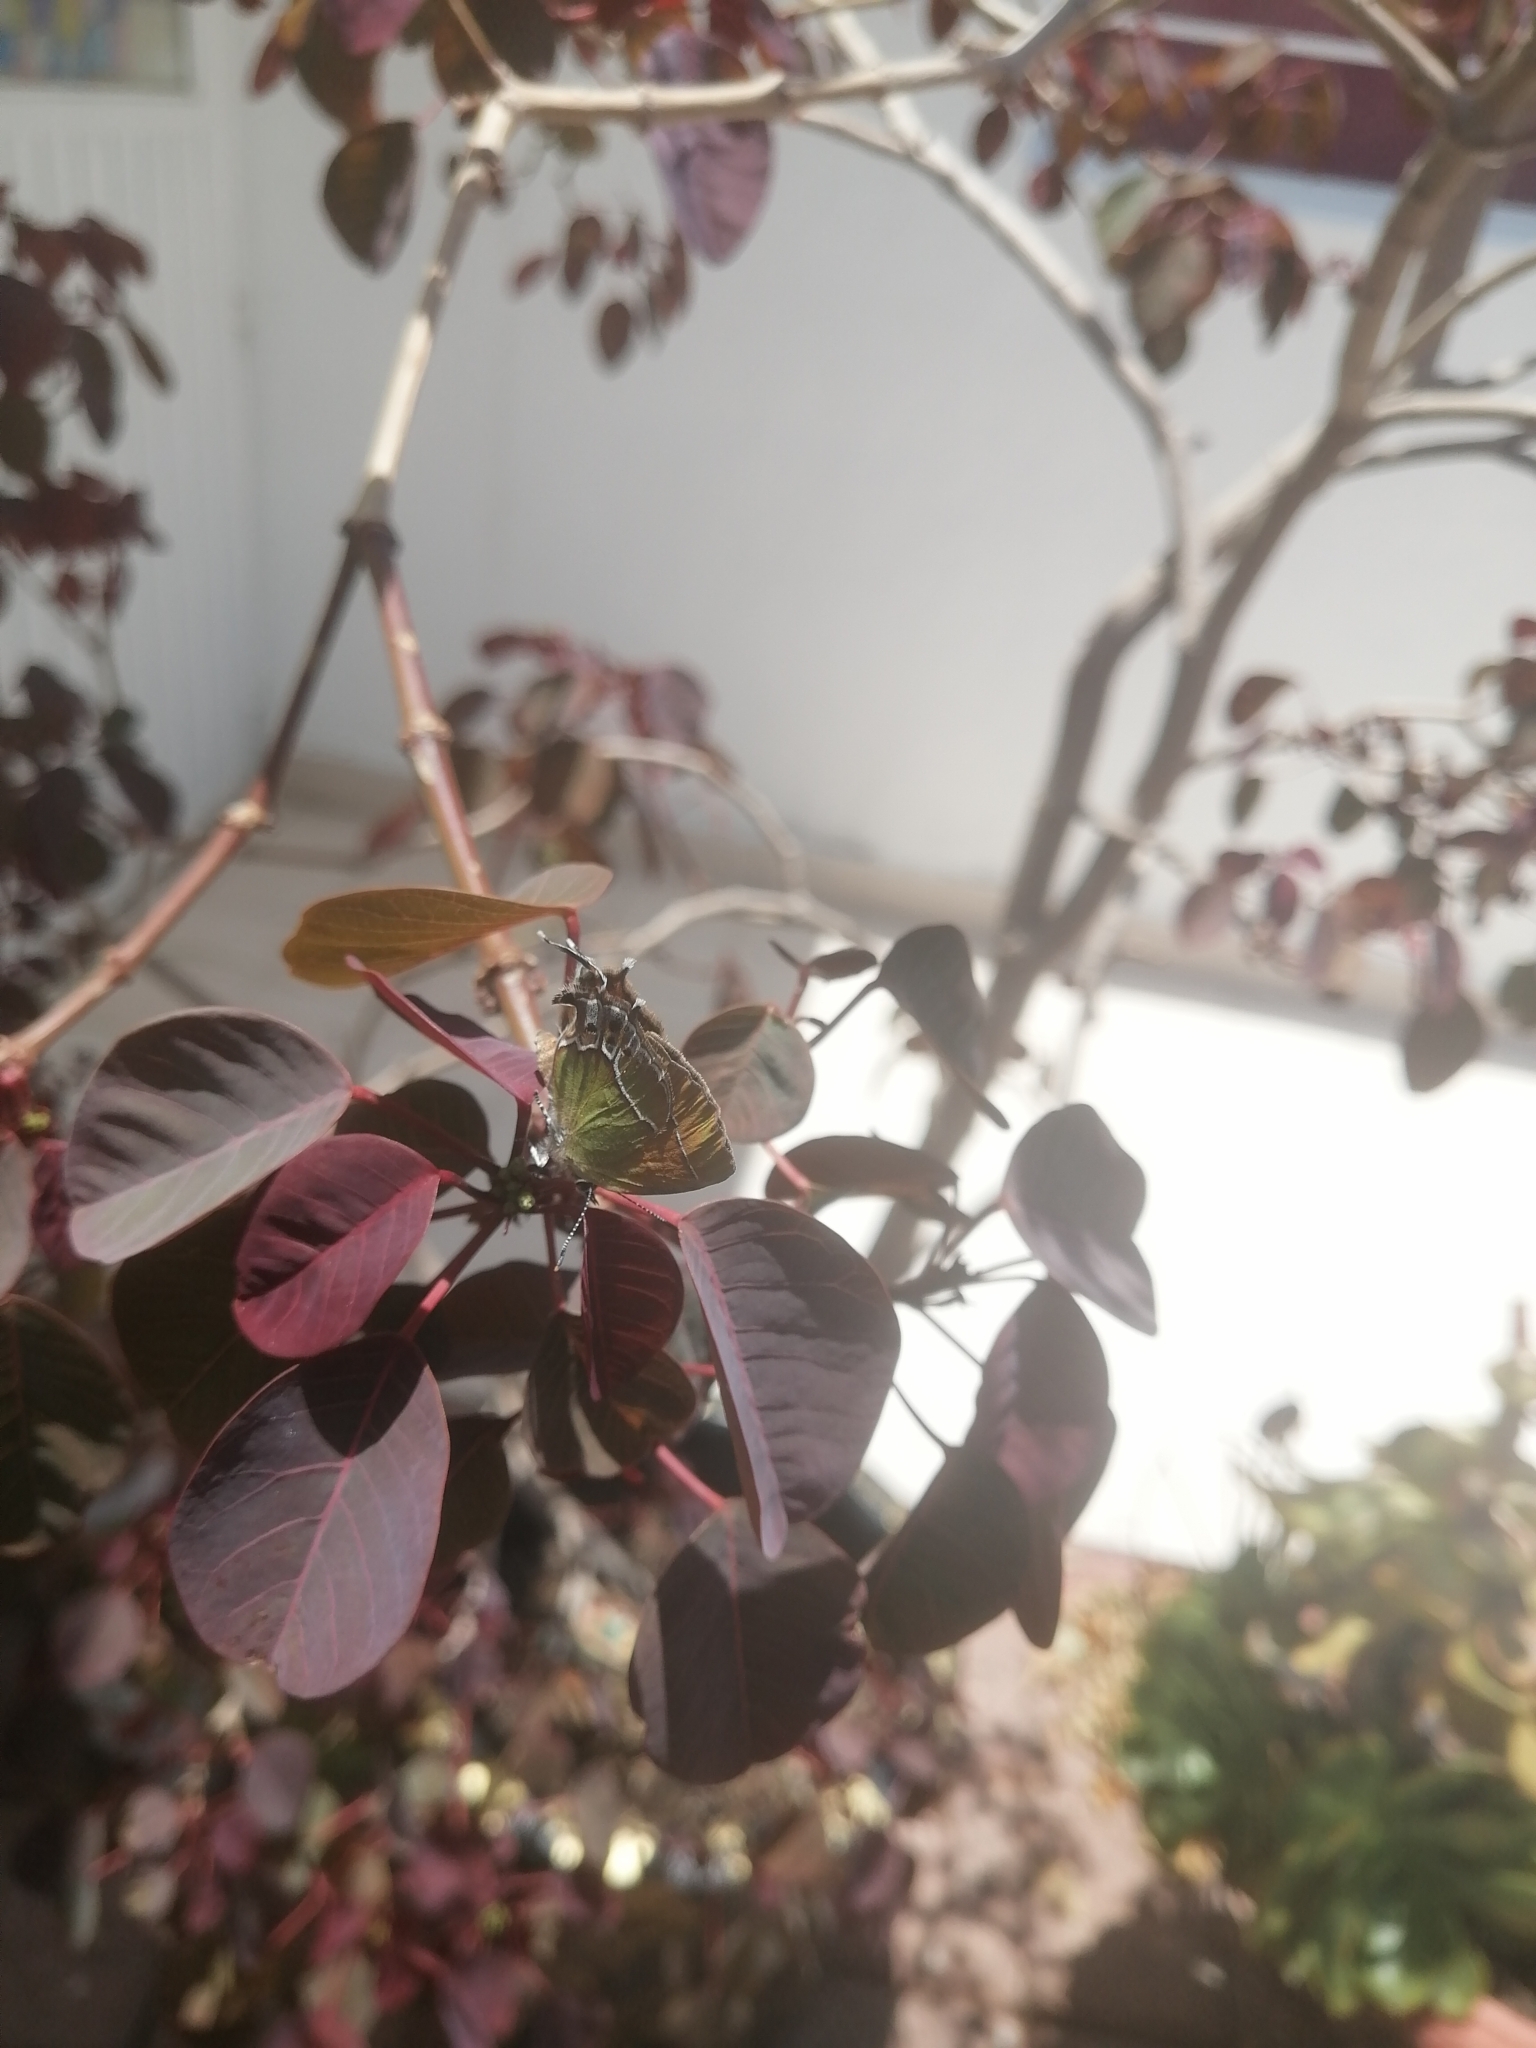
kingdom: Animalia
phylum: Arthropoda
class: Insecta
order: Lepidoptera
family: Lycaenidae
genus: Xamia
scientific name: Xamia xami
